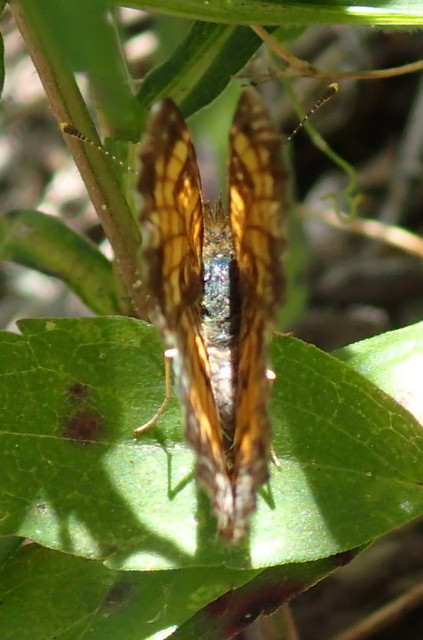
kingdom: Animalia
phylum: Arthropoda
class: Insecta
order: Lepidoptera
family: Nymphalidae
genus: Phyciodes
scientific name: Phyciodes tharos
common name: Pearl crescent
